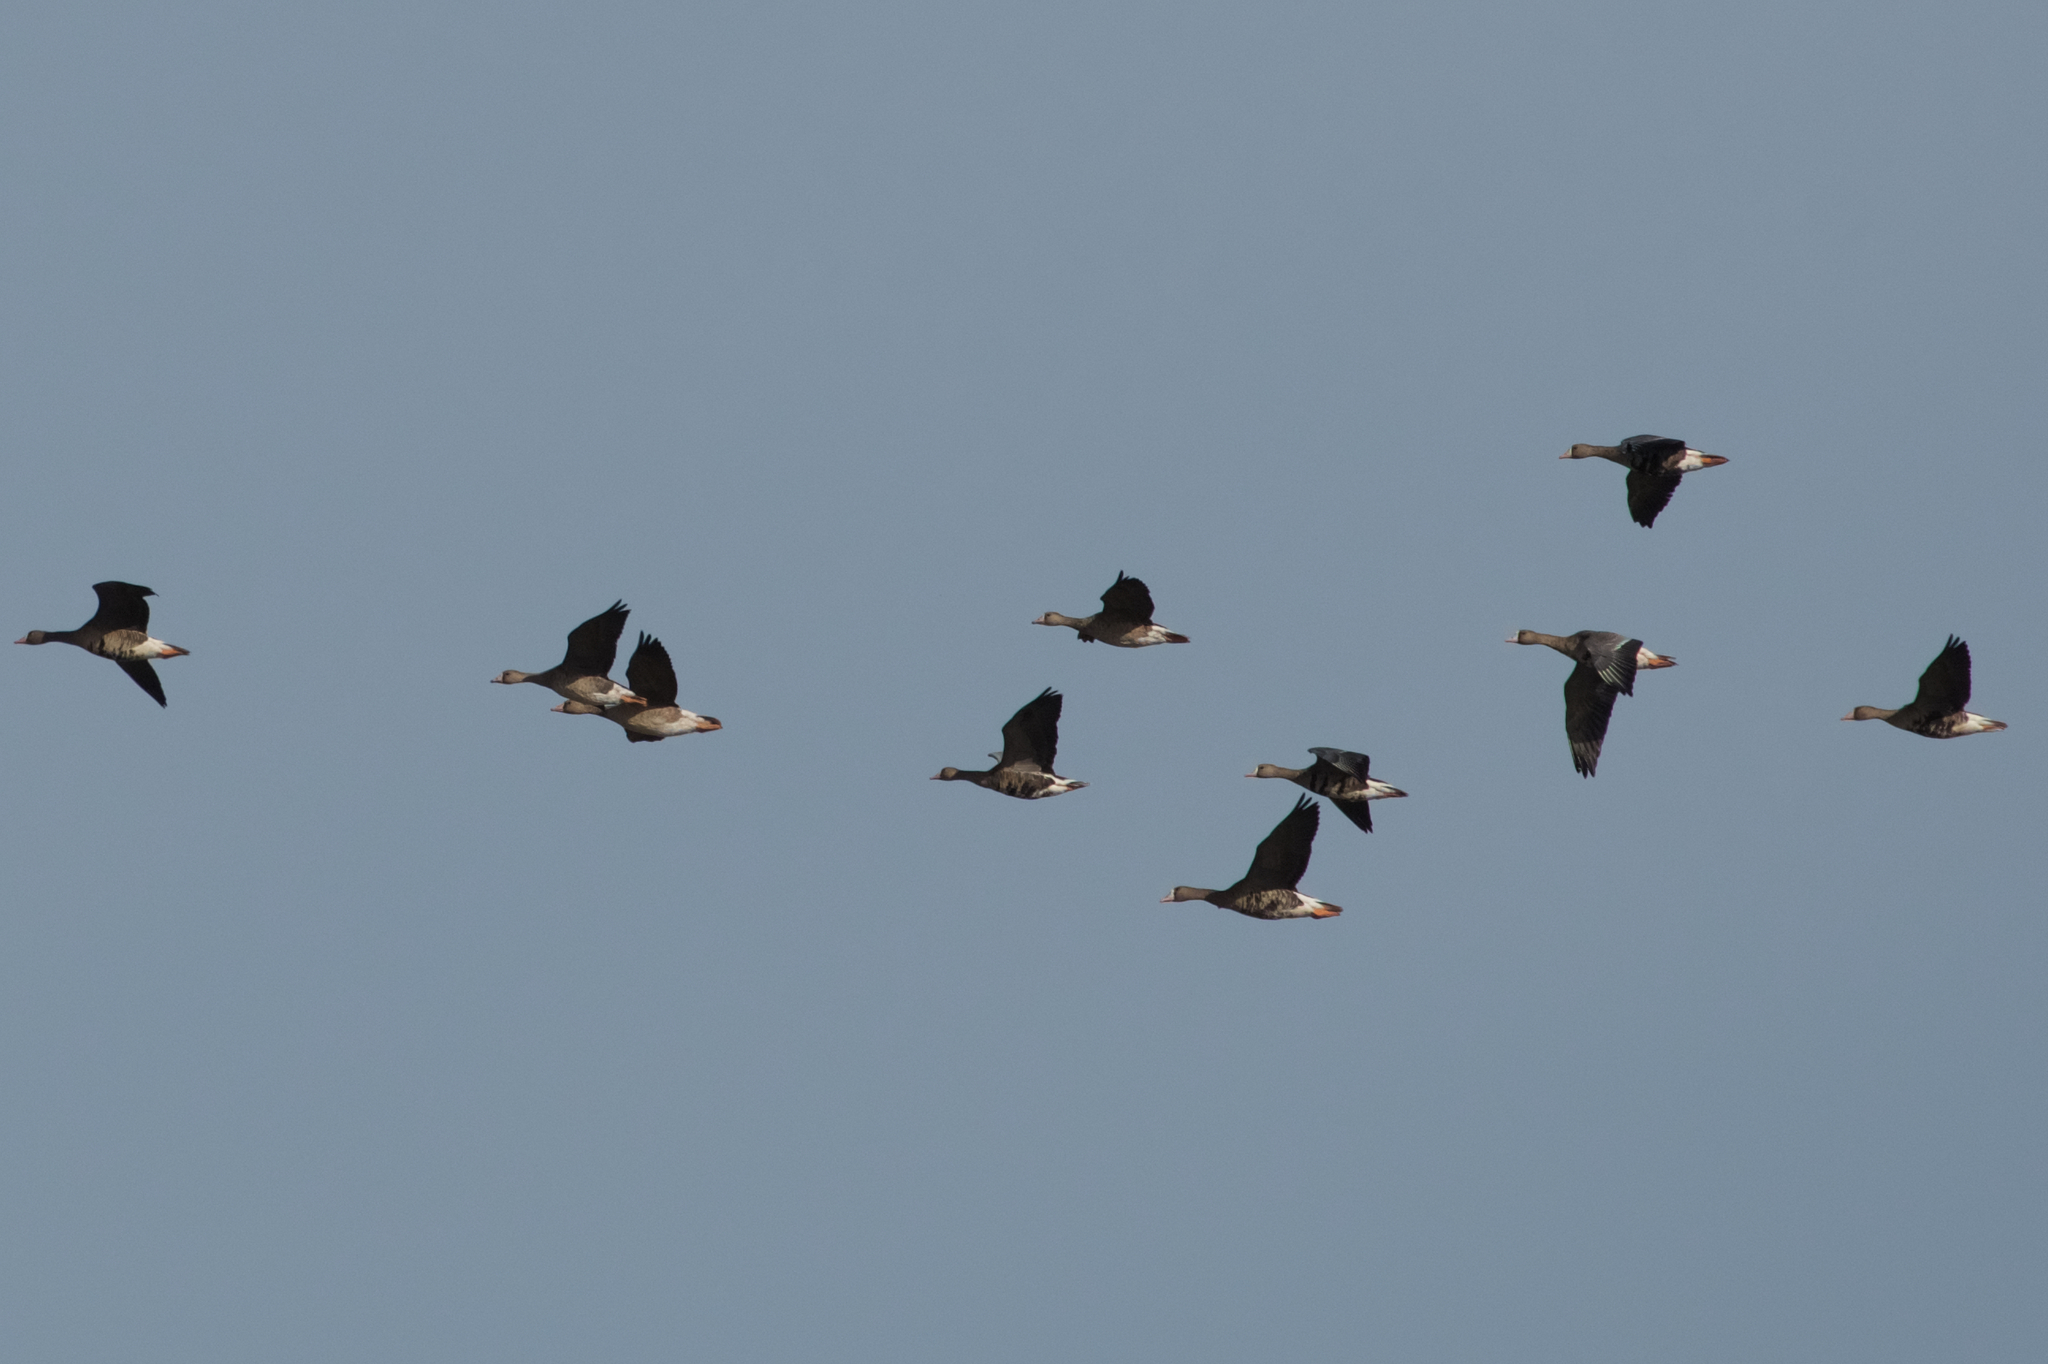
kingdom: Animalia
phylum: Chordata
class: Aves
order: Anseriformes
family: Anatidae
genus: Anser
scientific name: Anser albifrons
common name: Greater white-fronted goose
